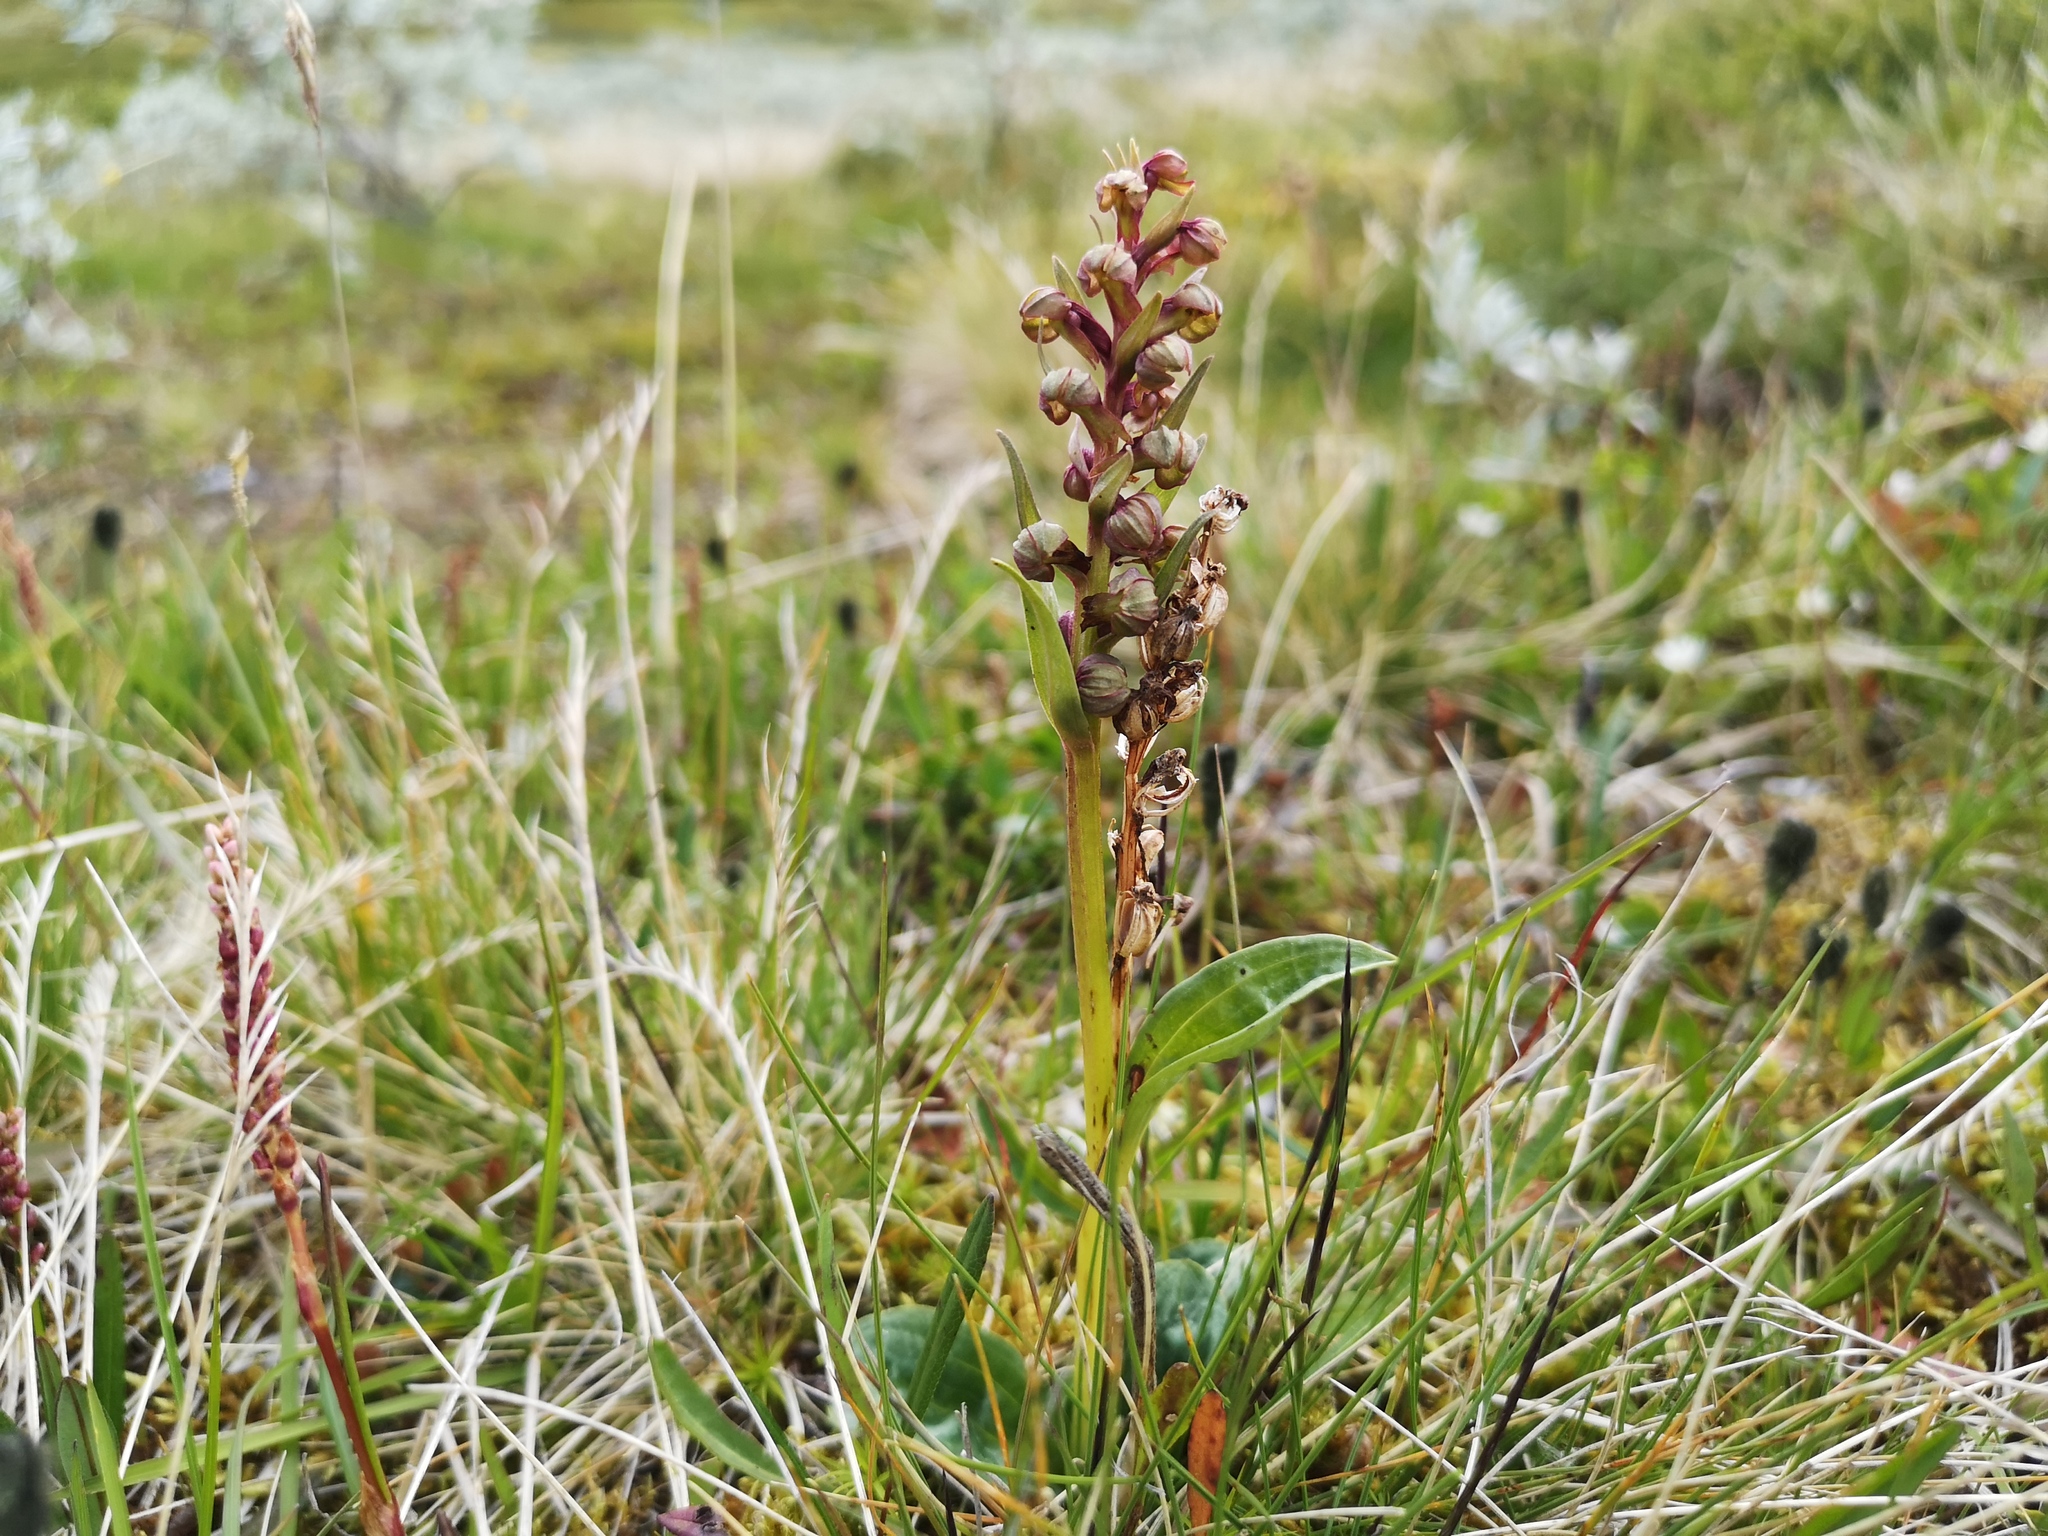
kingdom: Plantae
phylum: Tracheophyta
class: Liliopsida
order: Asparagales
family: Orchidaceae
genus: Dactylorhiza
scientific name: Dactylorhiza viridis
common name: Longbract frog orchid
